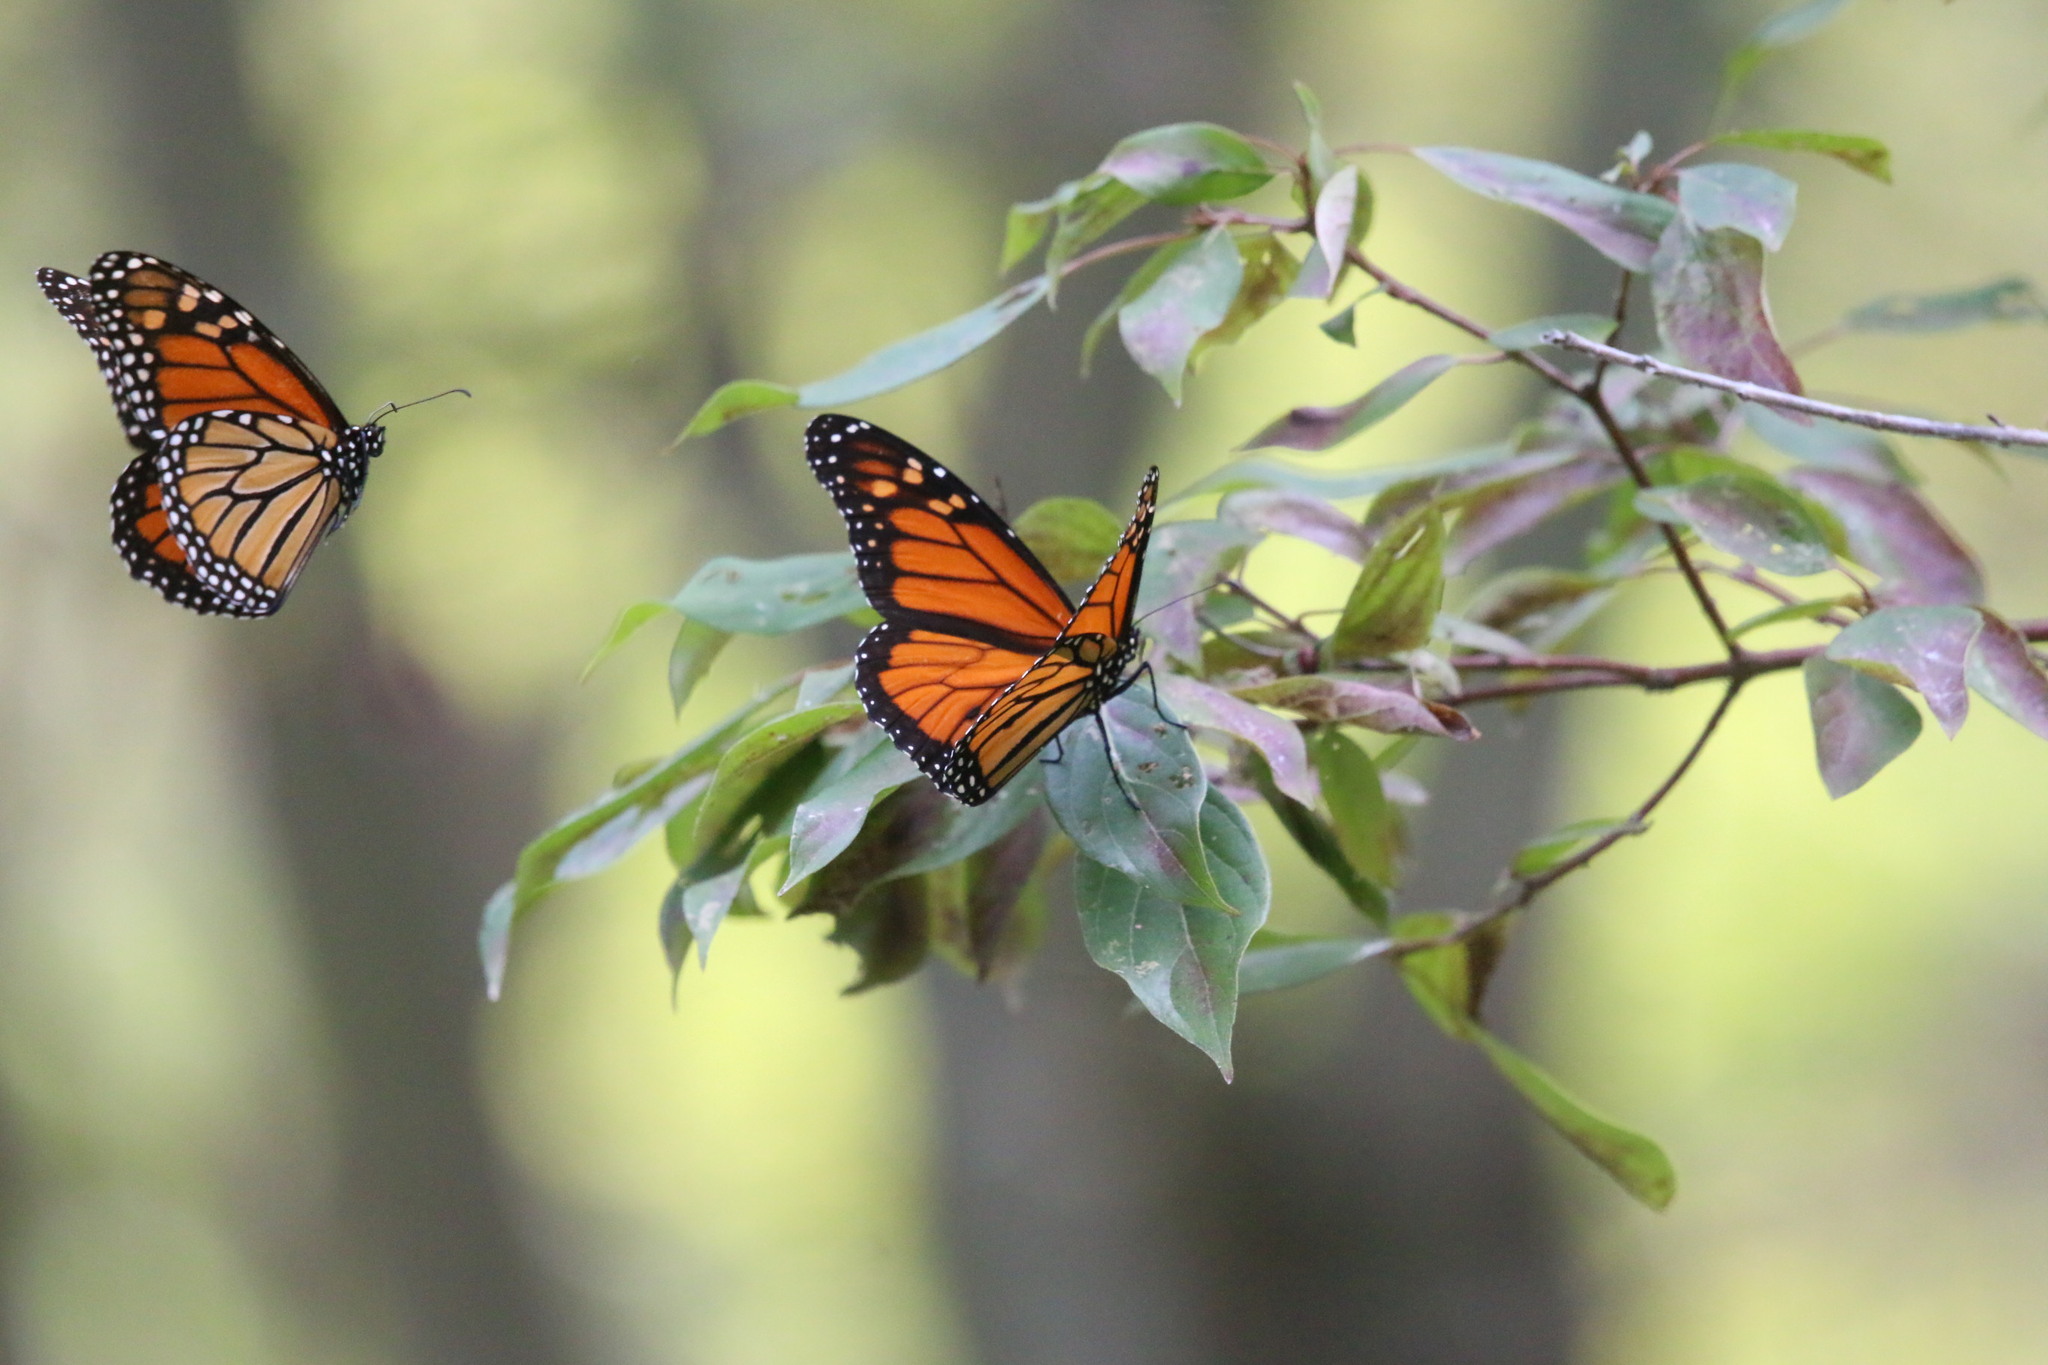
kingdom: Animalia
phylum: Arthropoda
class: Insecta
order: Lepidoptera
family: Nymphalidae
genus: Danaus
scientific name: Danaus plexippus
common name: Monarch
